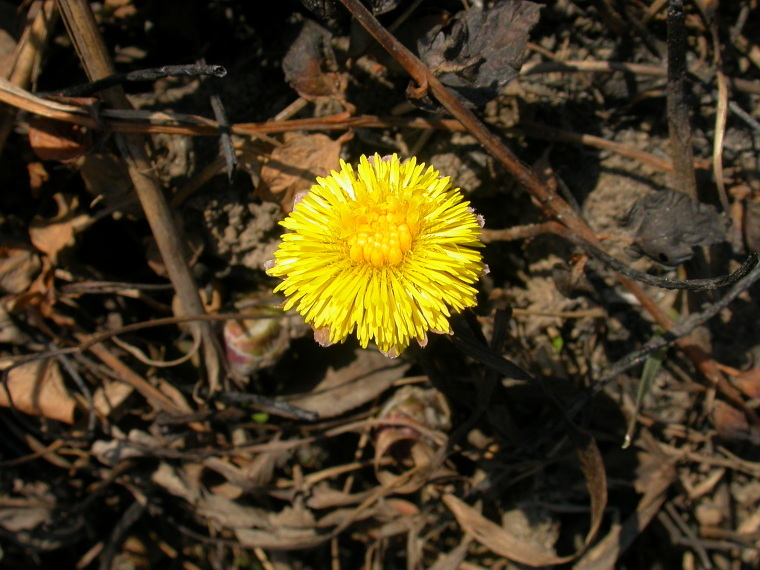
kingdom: Plantae
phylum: Tracheophyta
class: Magnoliopsida
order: Asterales
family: Asteraceae
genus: Tussilago
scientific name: Tussilago farfara
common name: Coltsfoot
